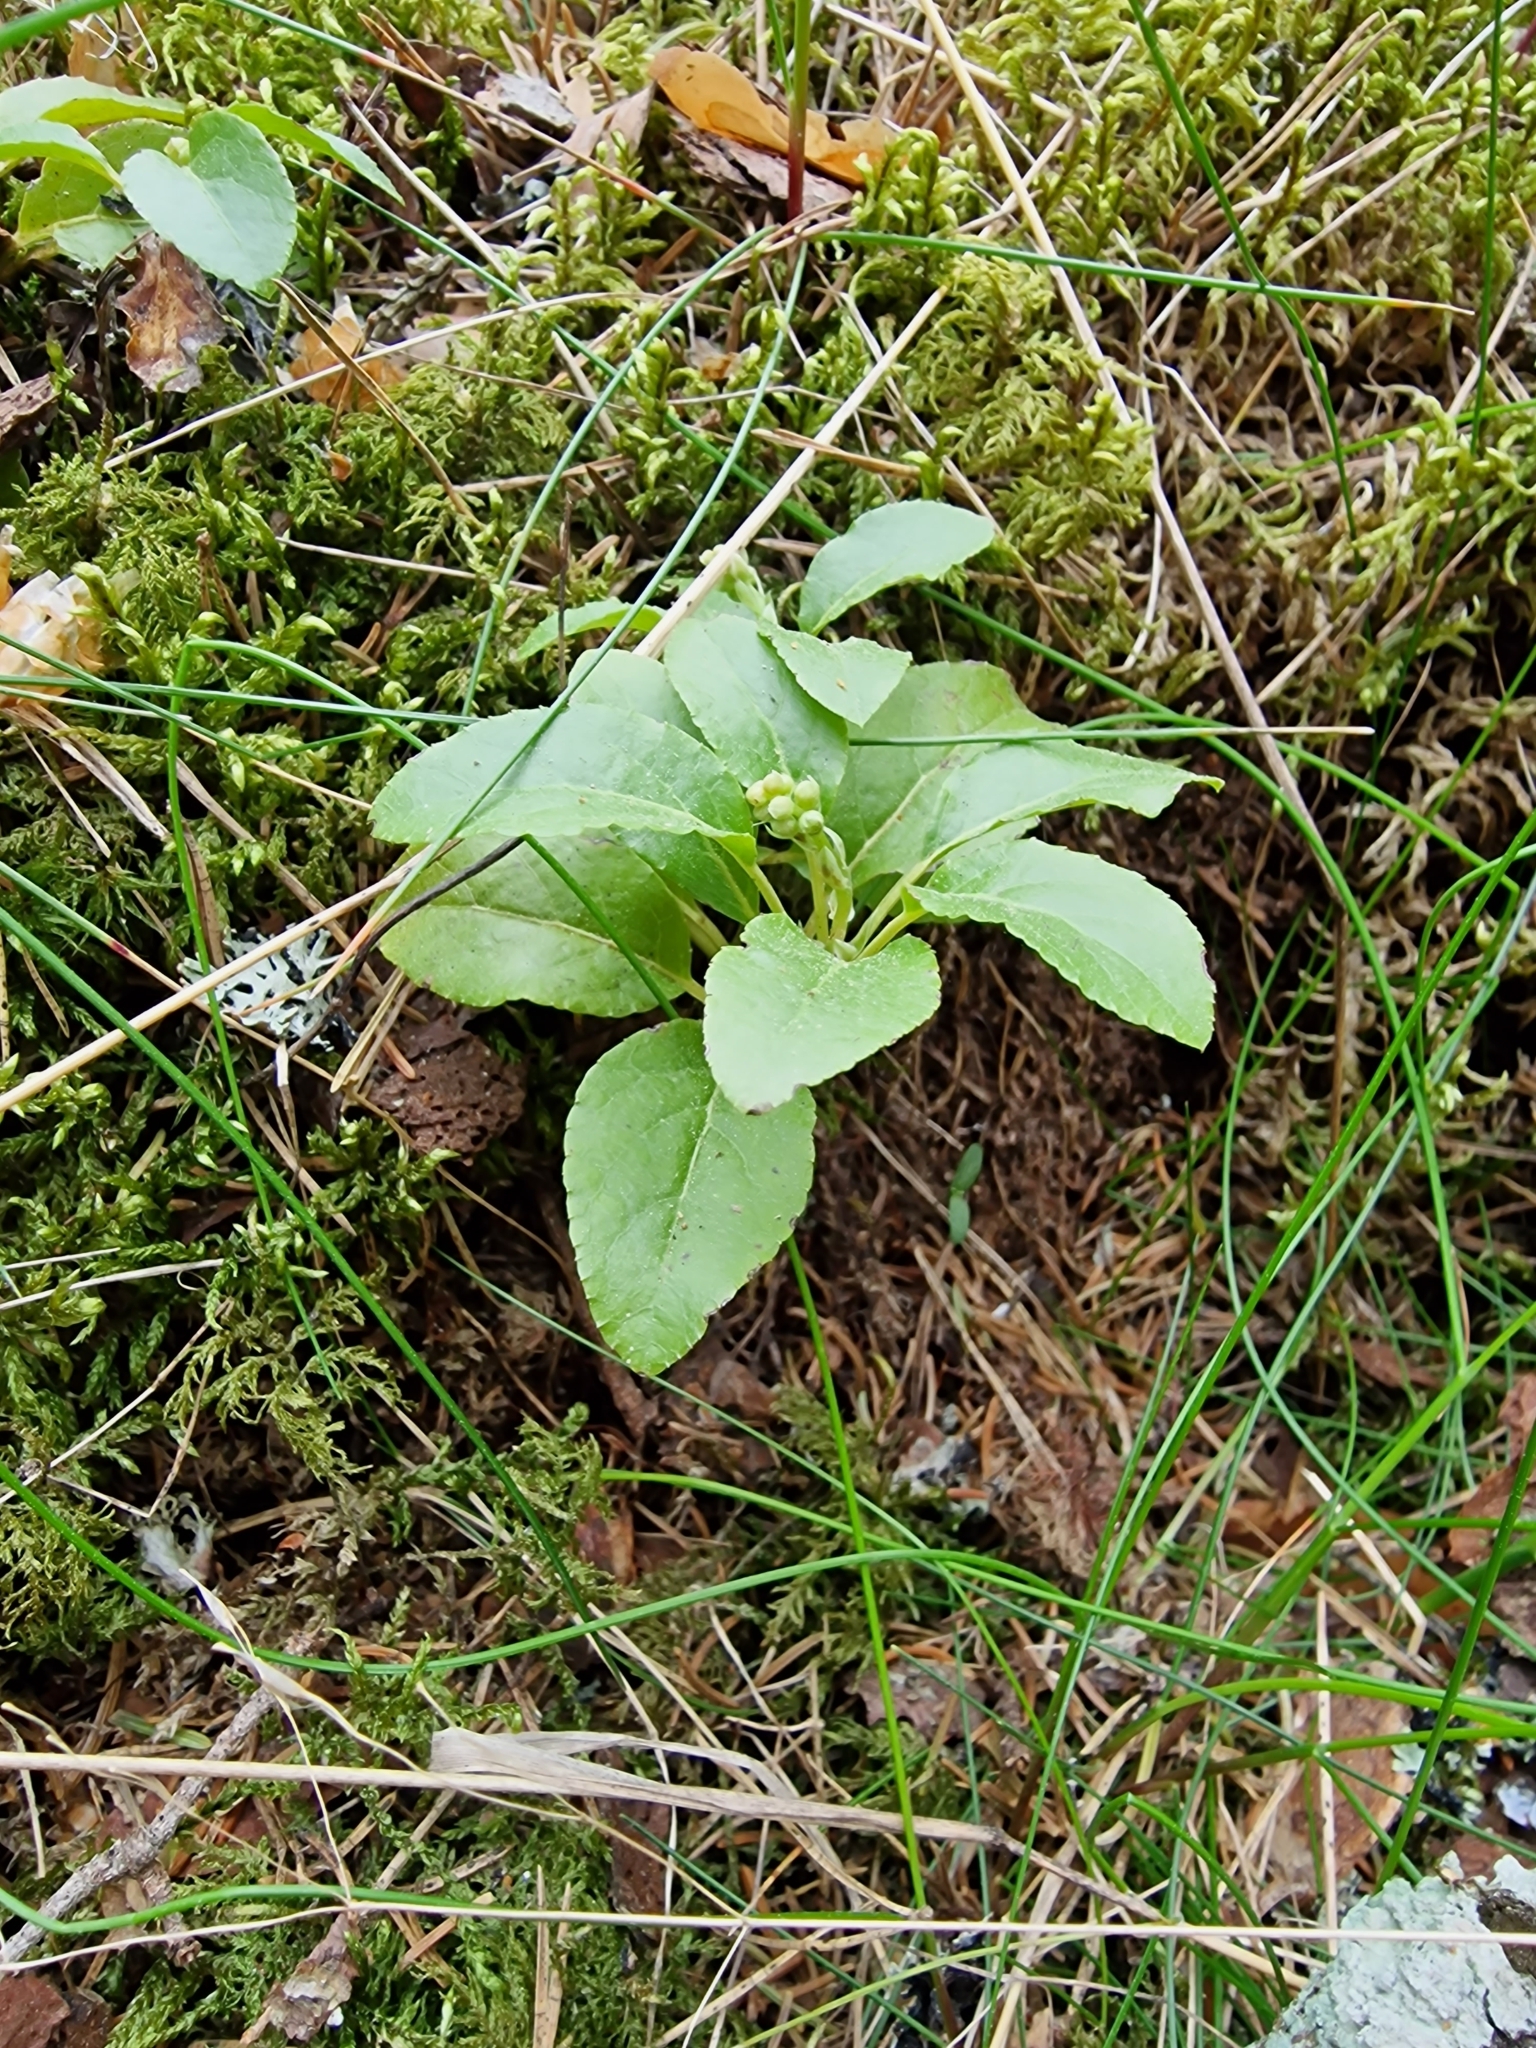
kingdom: Plantae
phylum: Tracheophyta
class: Magnoliopsida
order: Ericales
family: Ericaceae
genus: Orthilia
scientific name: Orthilia secunda
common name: One-sided orthilia
